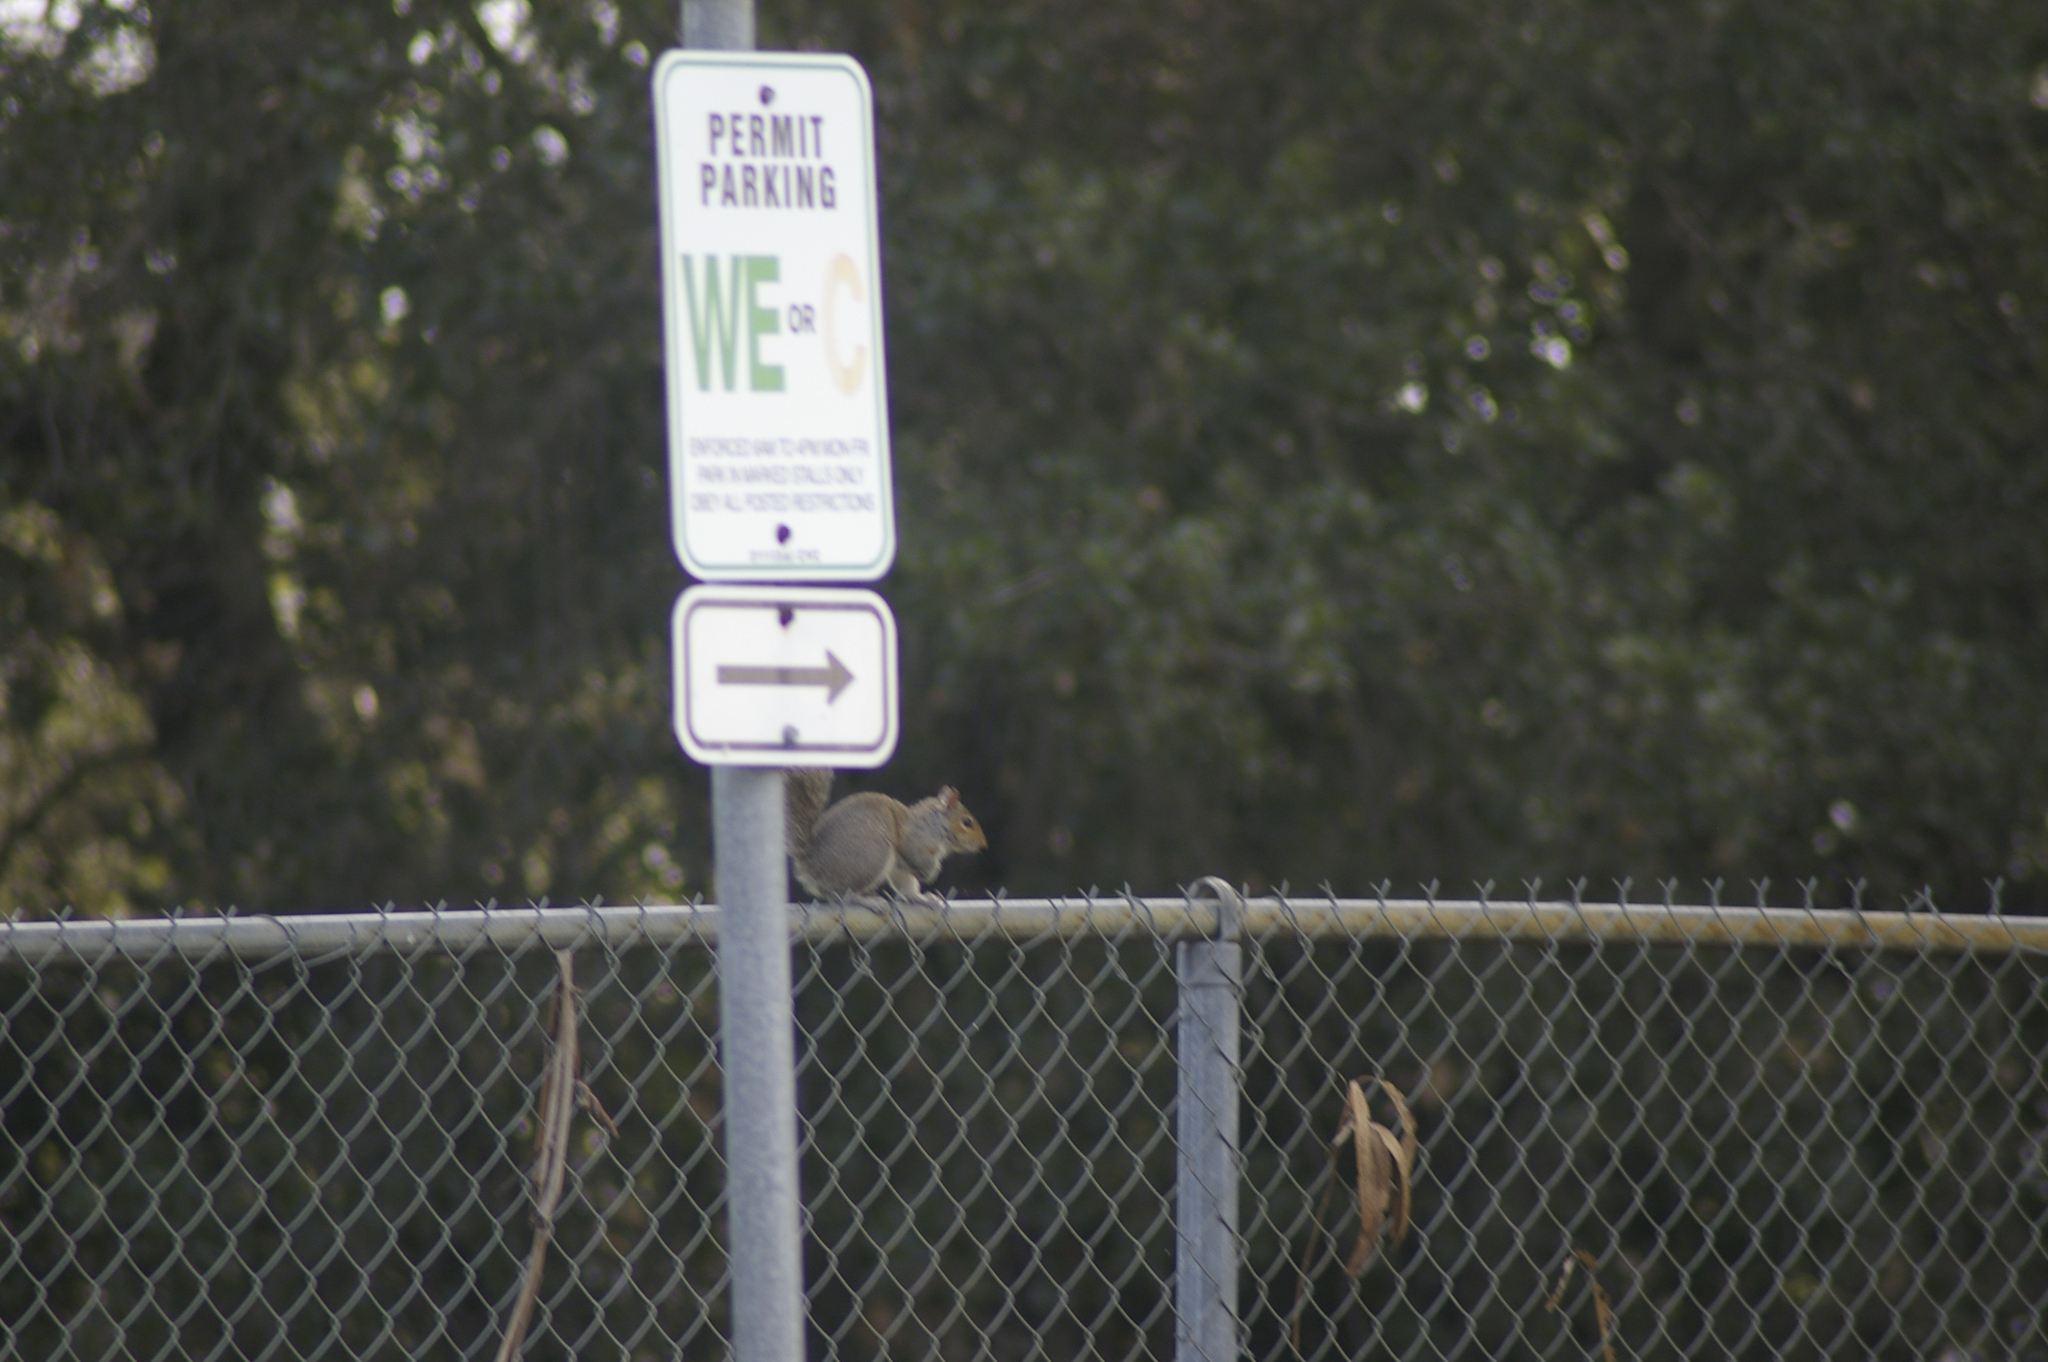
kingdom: Animalia
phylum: Chordata
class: Mammalia
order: Rodentia
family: Sciuridae
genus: Sciurus
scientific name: Sciurus carolinensis
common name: Eastern gray squirrel
